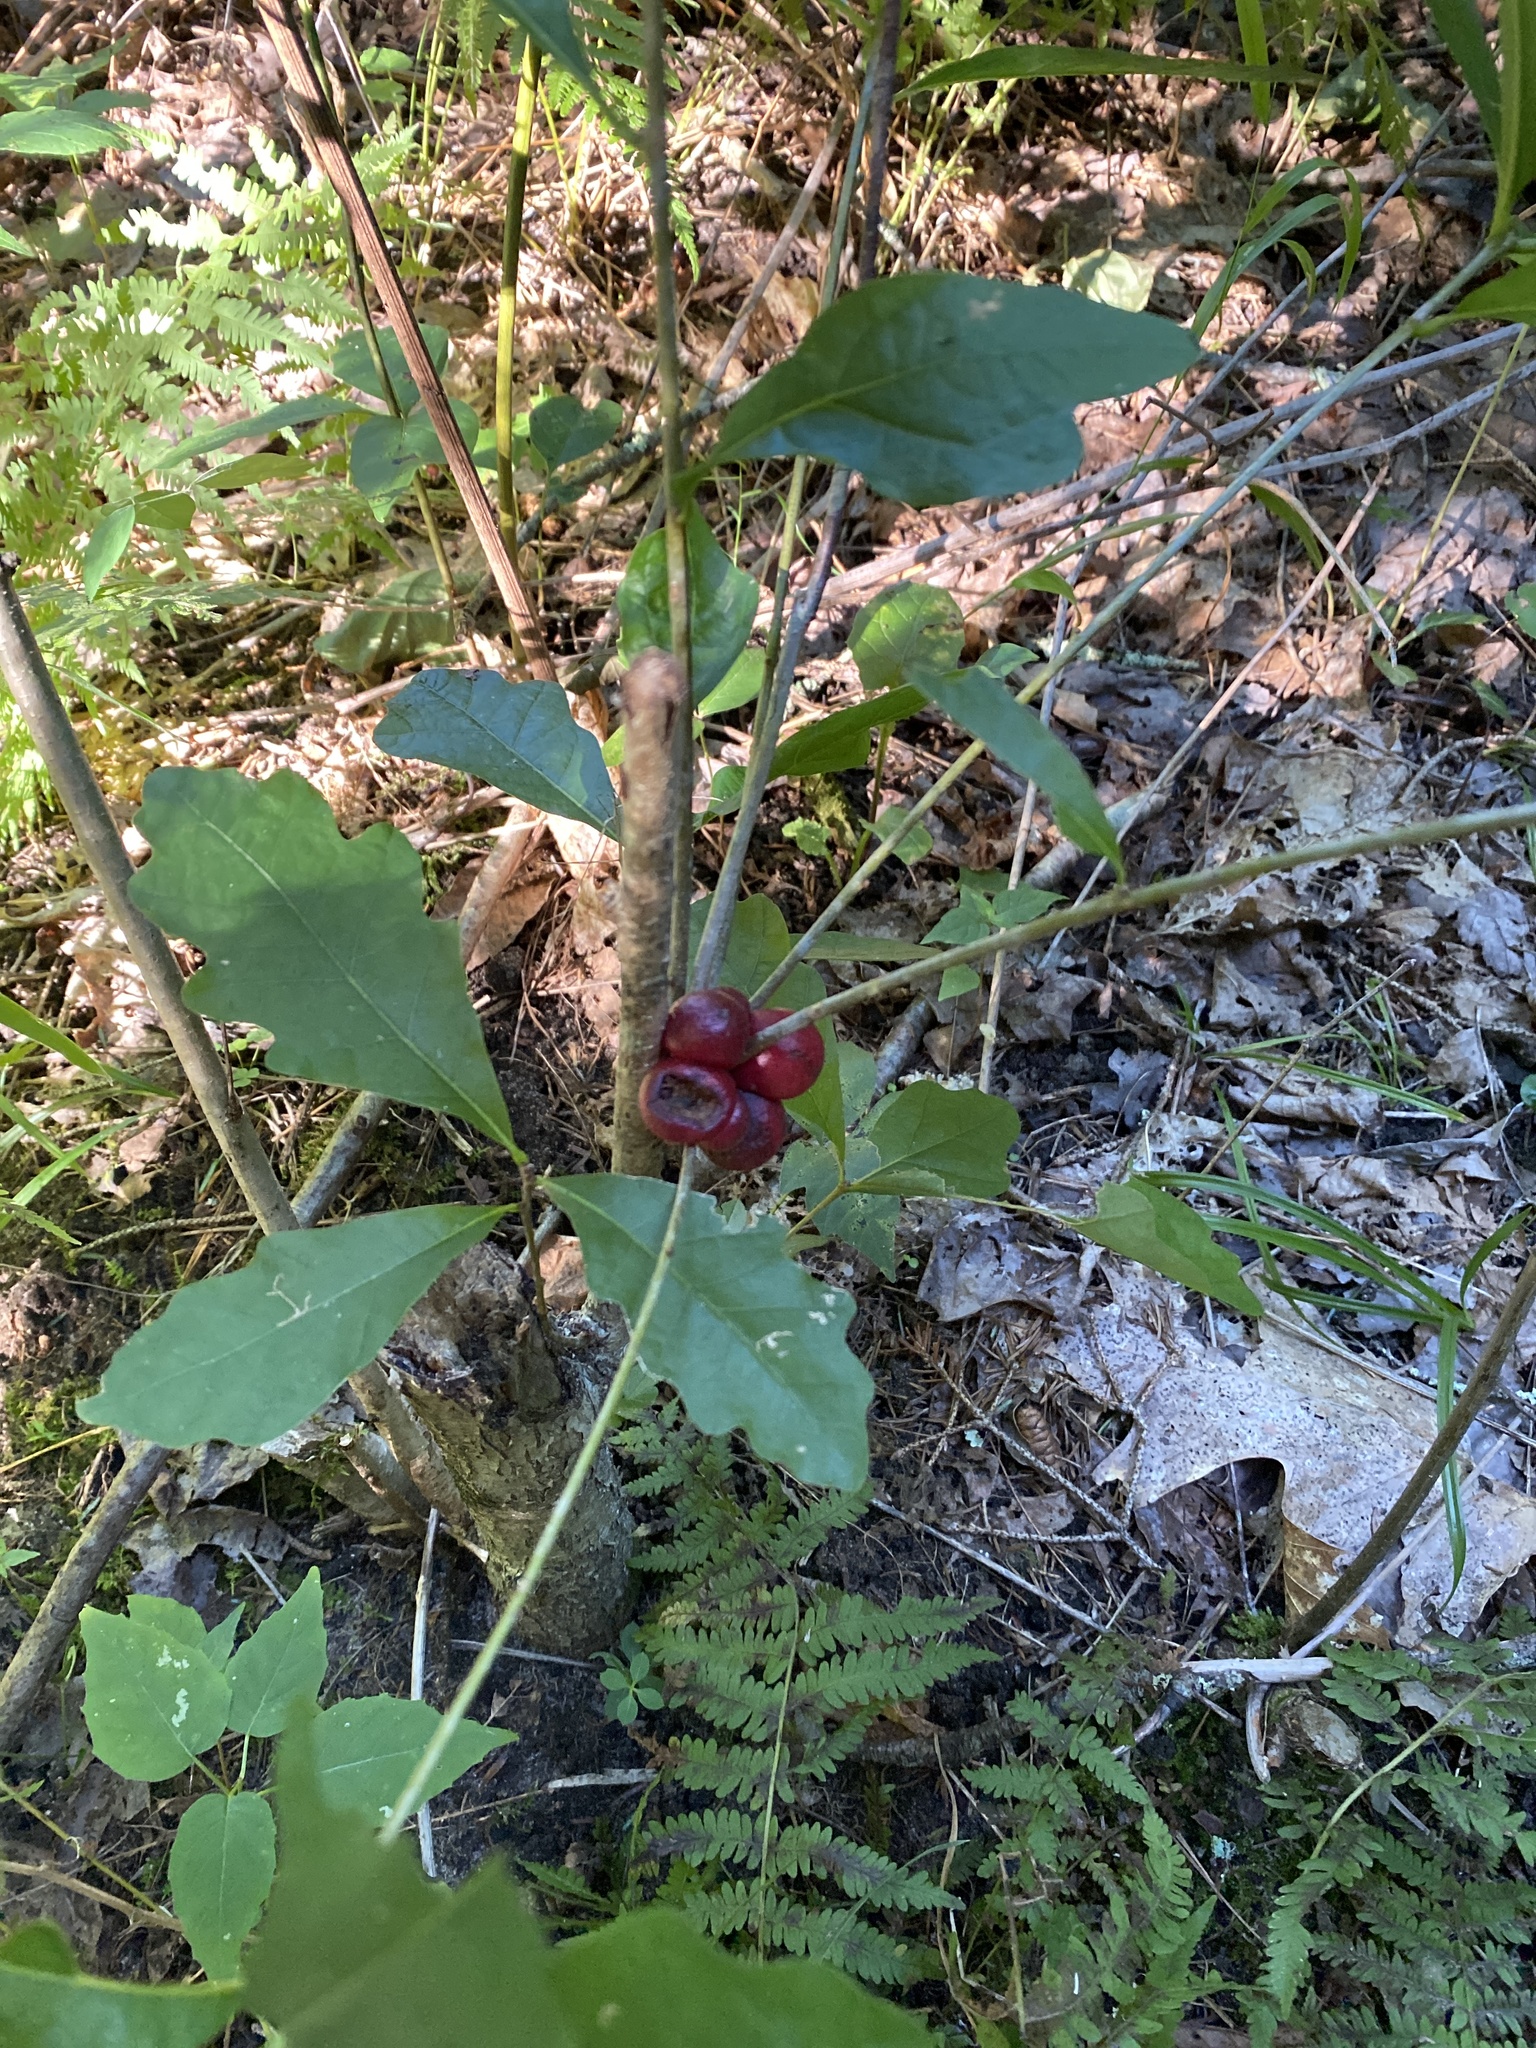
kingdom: Animalia
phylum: Arthropoda
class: Insecta
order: Hymenoptera
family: Cynipidae
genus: Disholcaspis
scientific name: Disholcaspis
